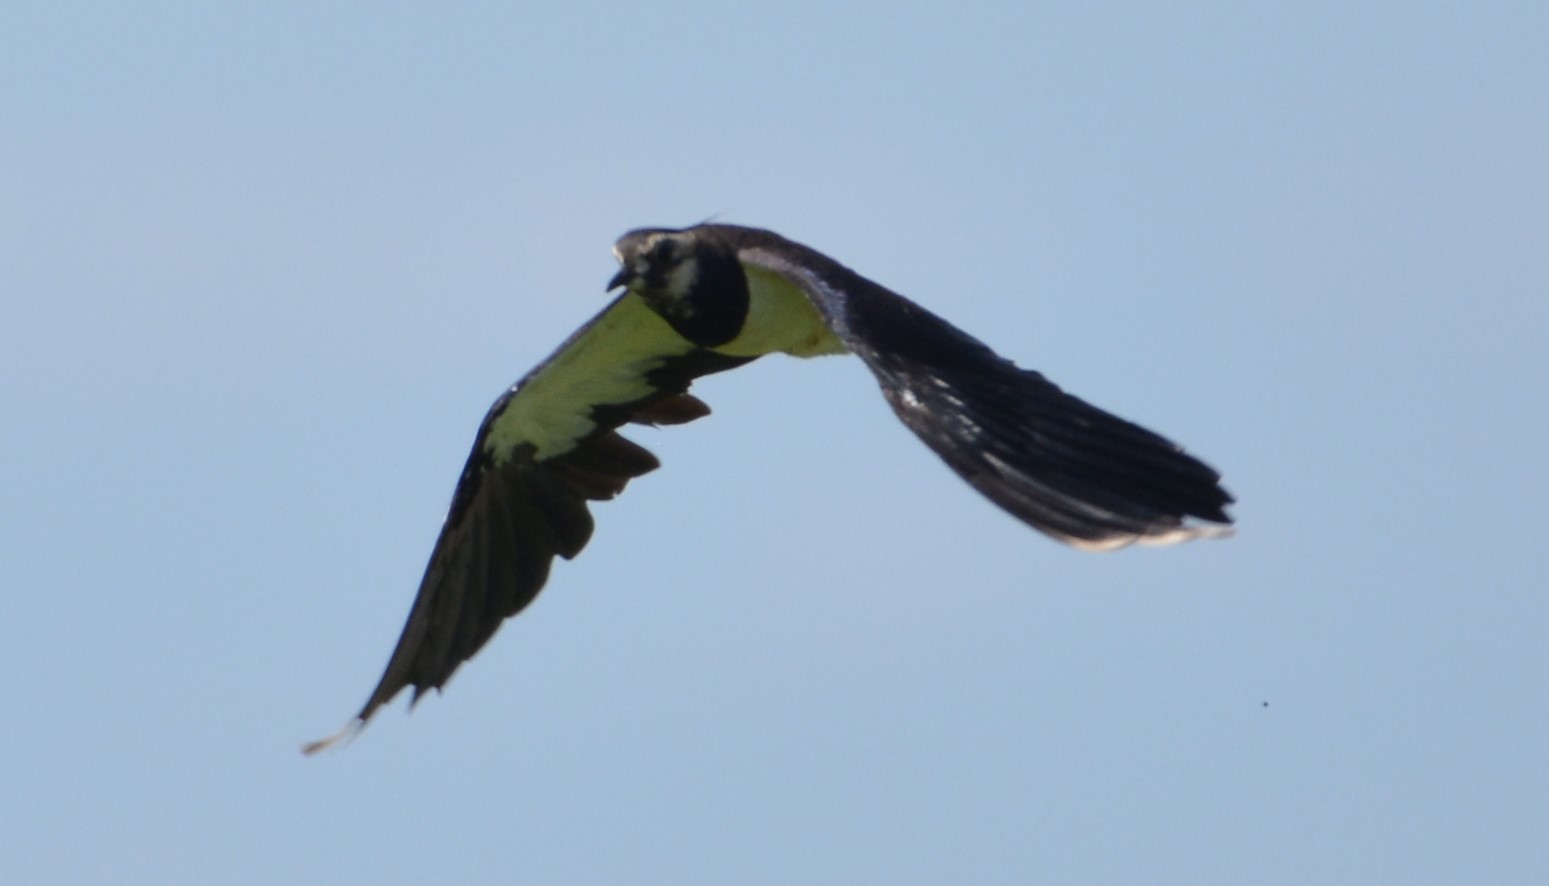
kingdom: Animalia
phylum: Chordata
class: Aves
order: Charadriiformes
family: Charadriidae
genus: Vanellus
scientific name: Vanellus vanellus
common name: Northern lapwing
